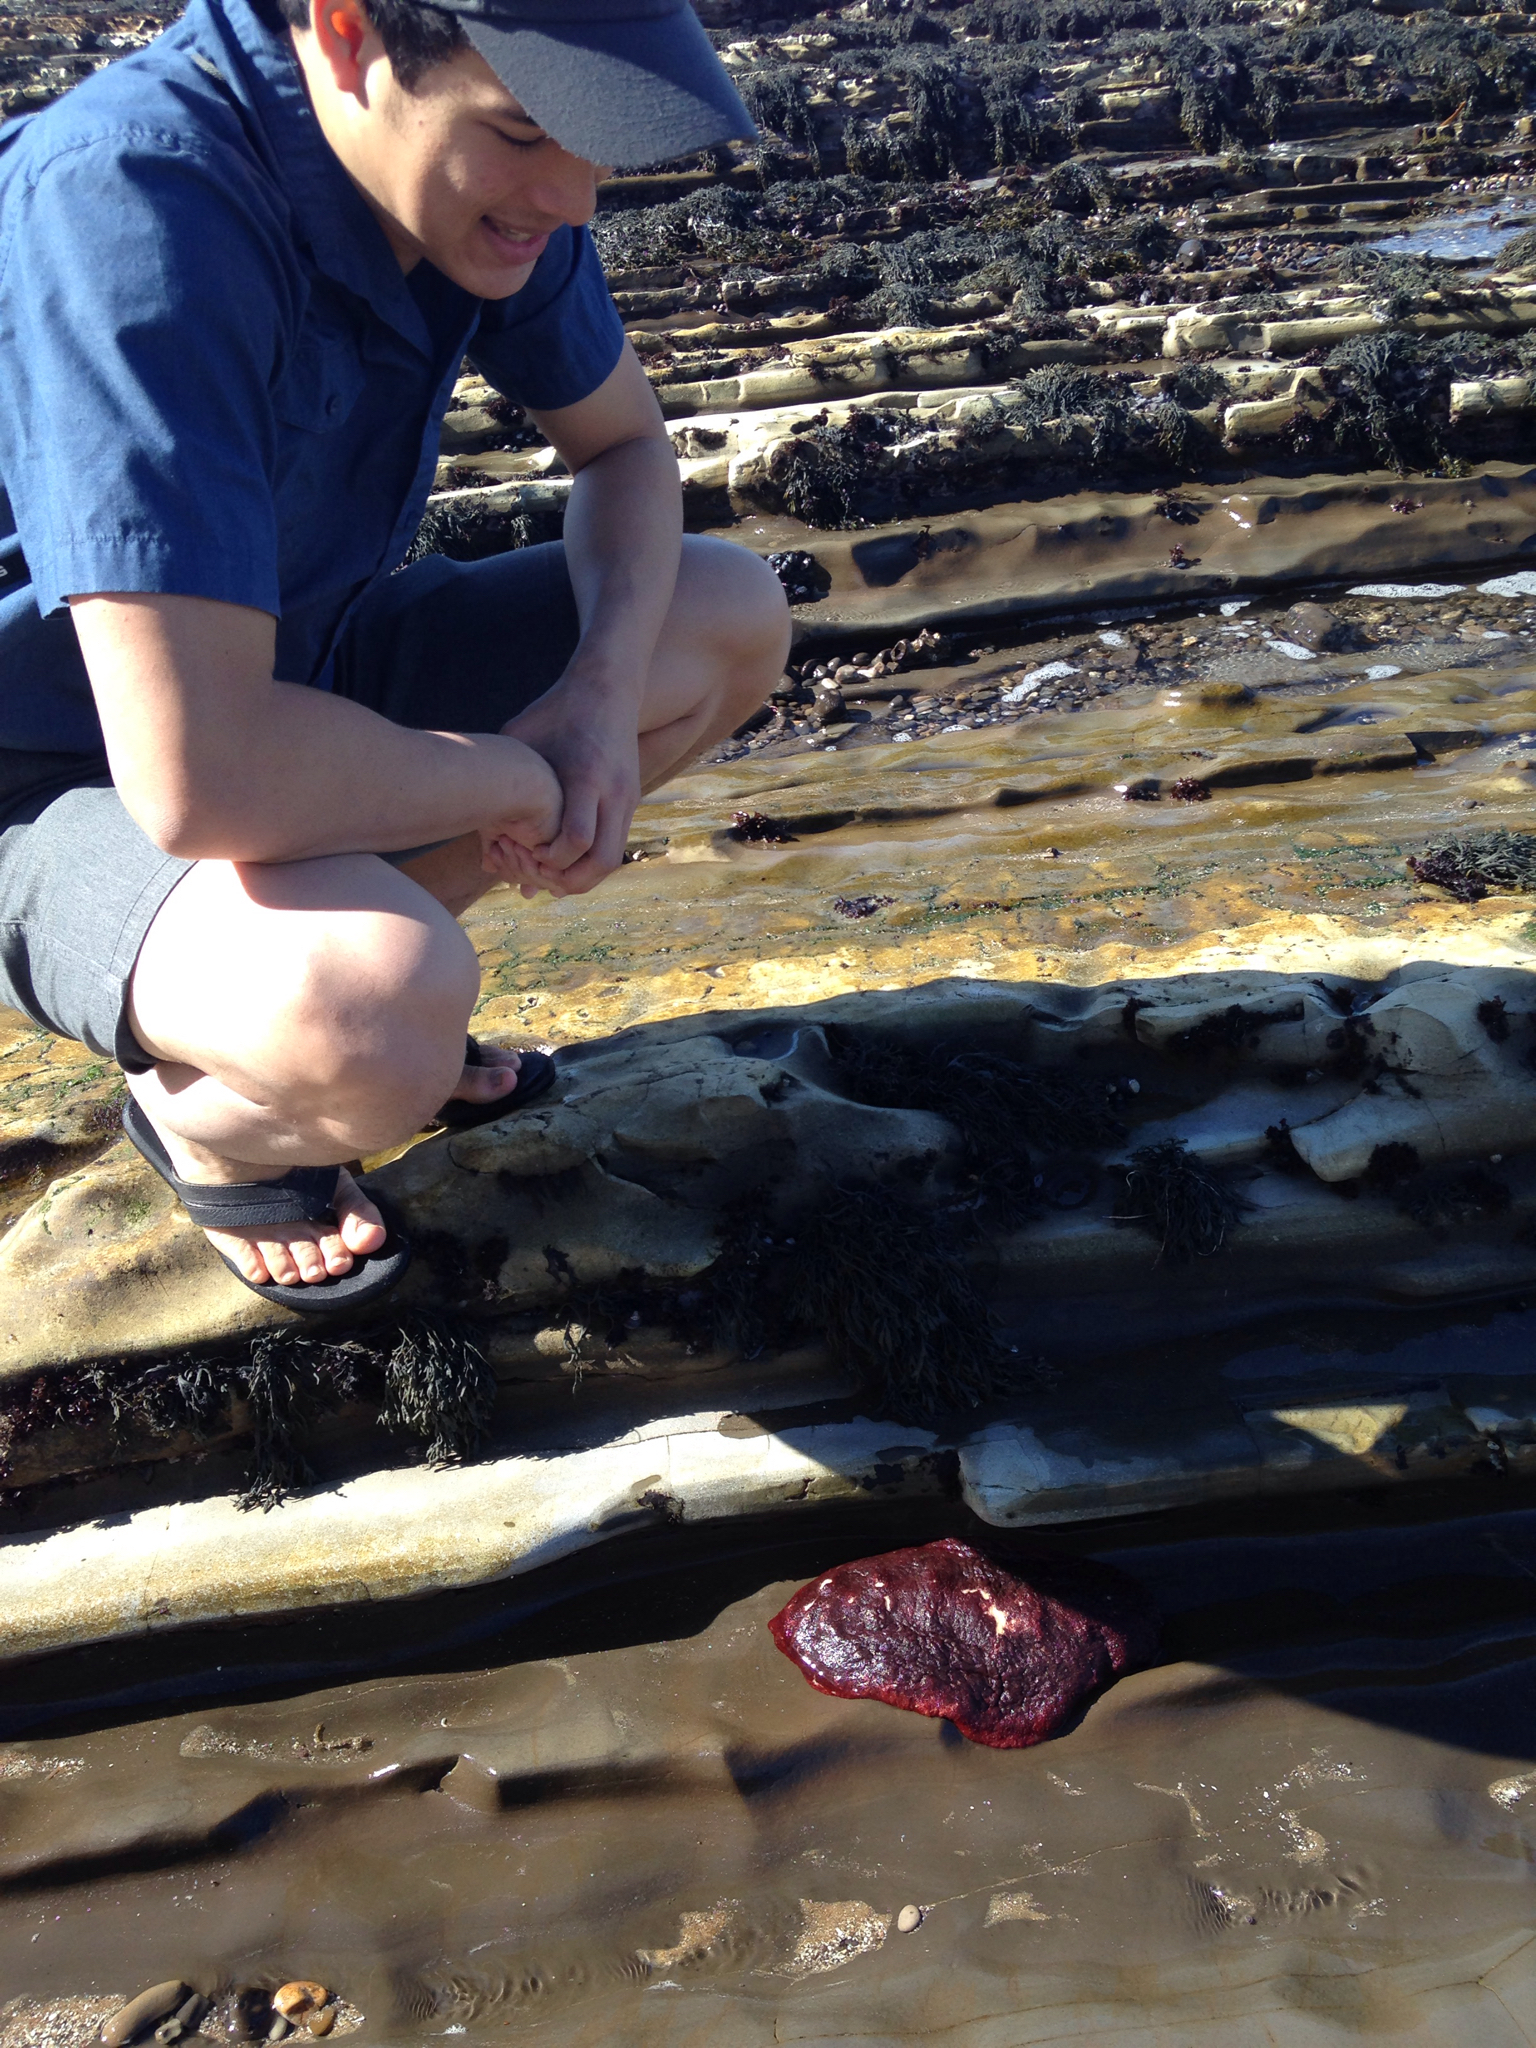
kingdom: Animalia
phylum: Mollusca
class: Polyplacophora
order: Chitonida
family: Acanthochitonidae
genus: Cryptochiton
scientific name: Cryptochiton stelleri
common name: Giant pacific chiton
